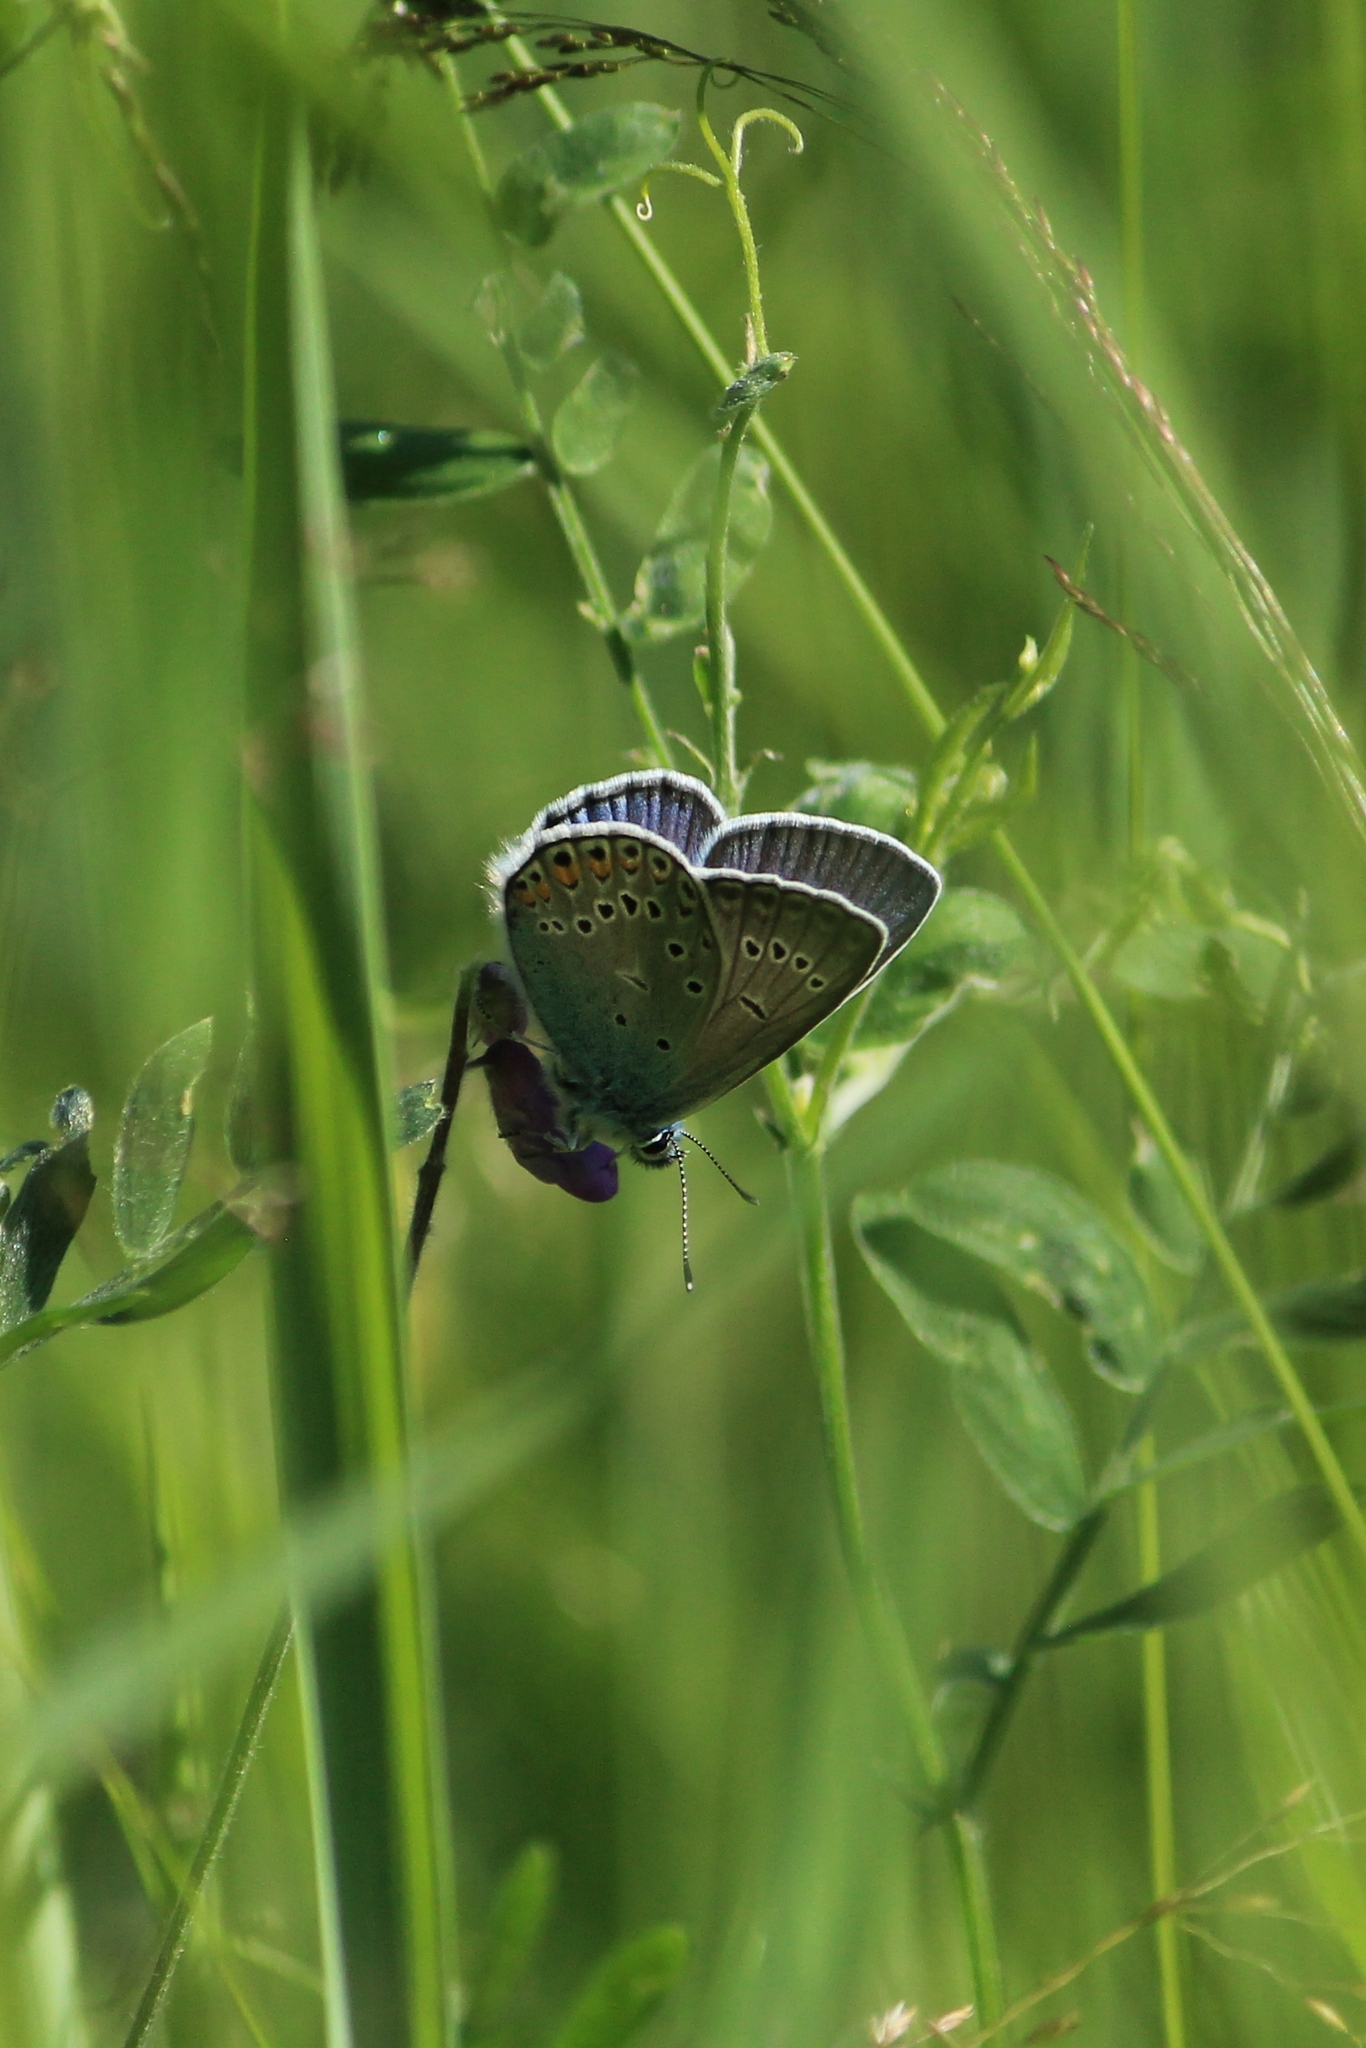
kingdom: Animalia
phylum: Arthropoda
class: Insecta
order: Lepidoptera
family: Lycaenidae
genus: Plebejus
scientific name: Plebejus amanda
